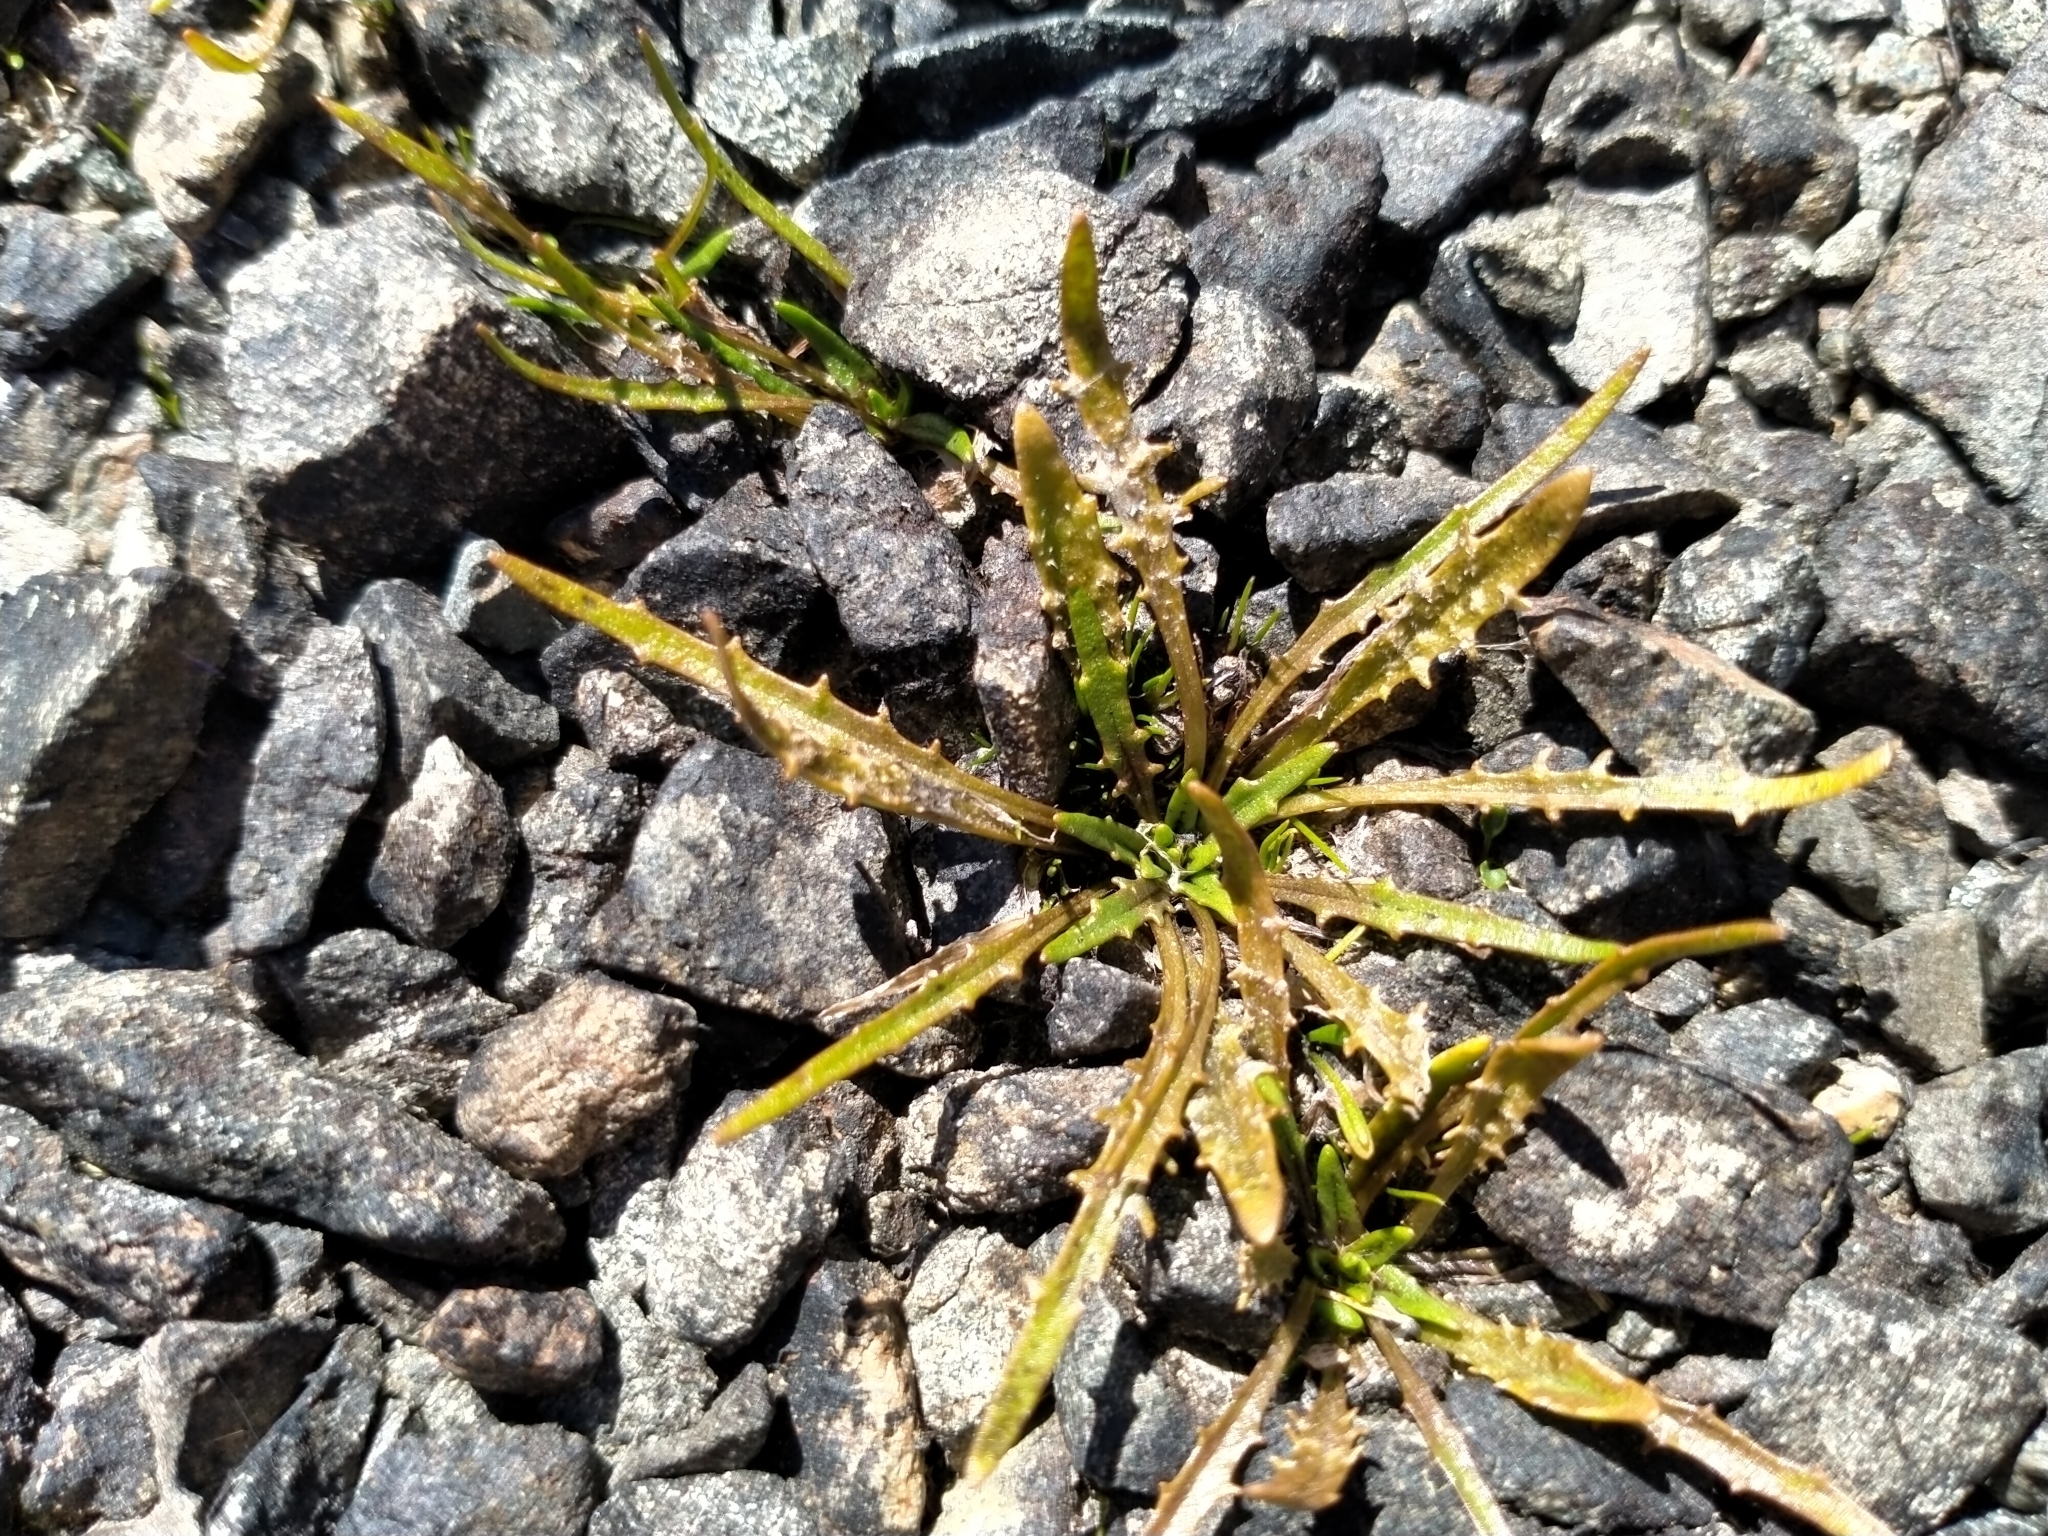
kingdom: Plantae
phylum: Tracheophyta
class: Magnoliopsida
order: Lamiales
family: Plantaginaceae
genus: Plantago
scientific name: Plantago triandra
